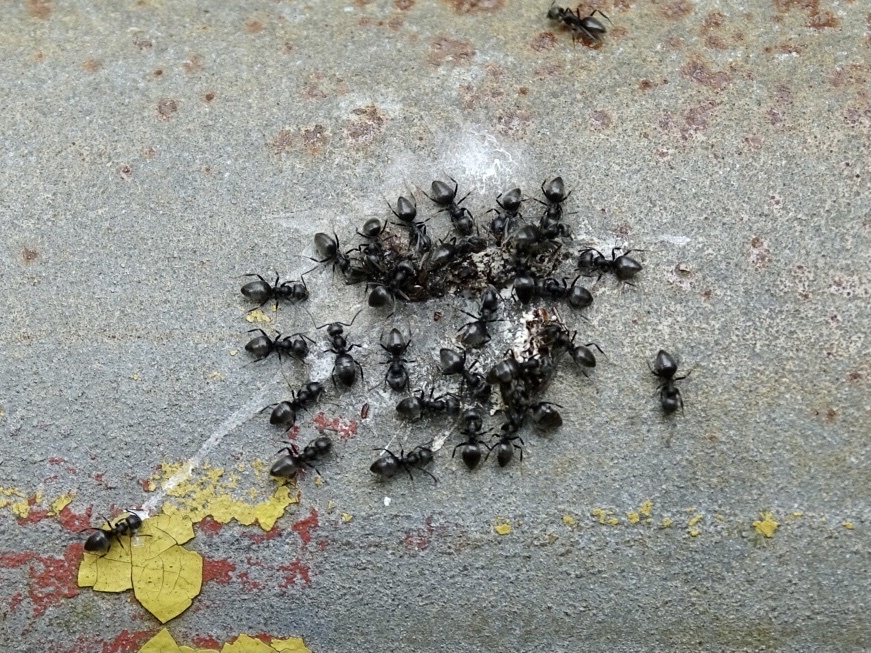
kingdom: Animalia
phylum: Arthropoda
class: Insecta
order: Hymenoptera
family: Formicidae
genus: Technomyrmex
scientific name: Technomyrmex brunneus
